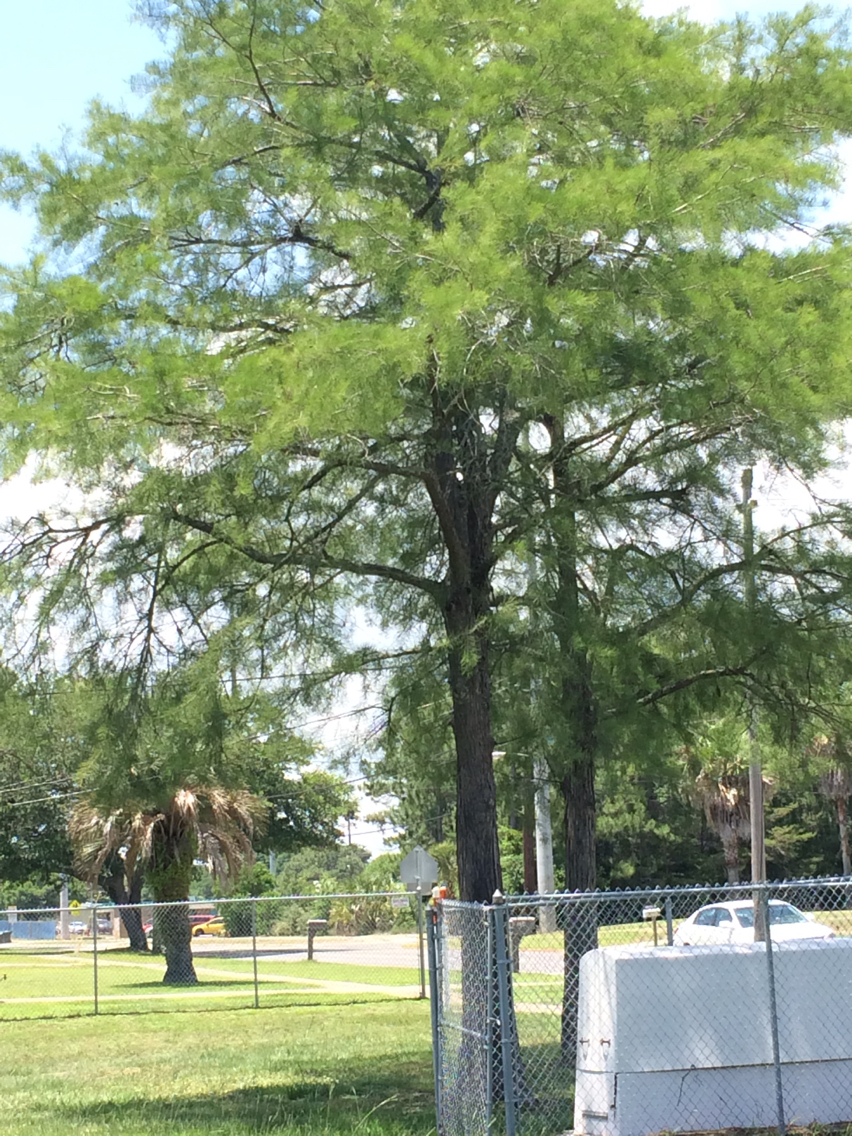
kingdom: Plantae
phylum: Tracheophyta
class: Pinopsida
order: Pinales
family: Cupressaceae
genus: Taxodium
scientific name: Taxodium distichum
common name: Bald cypress
